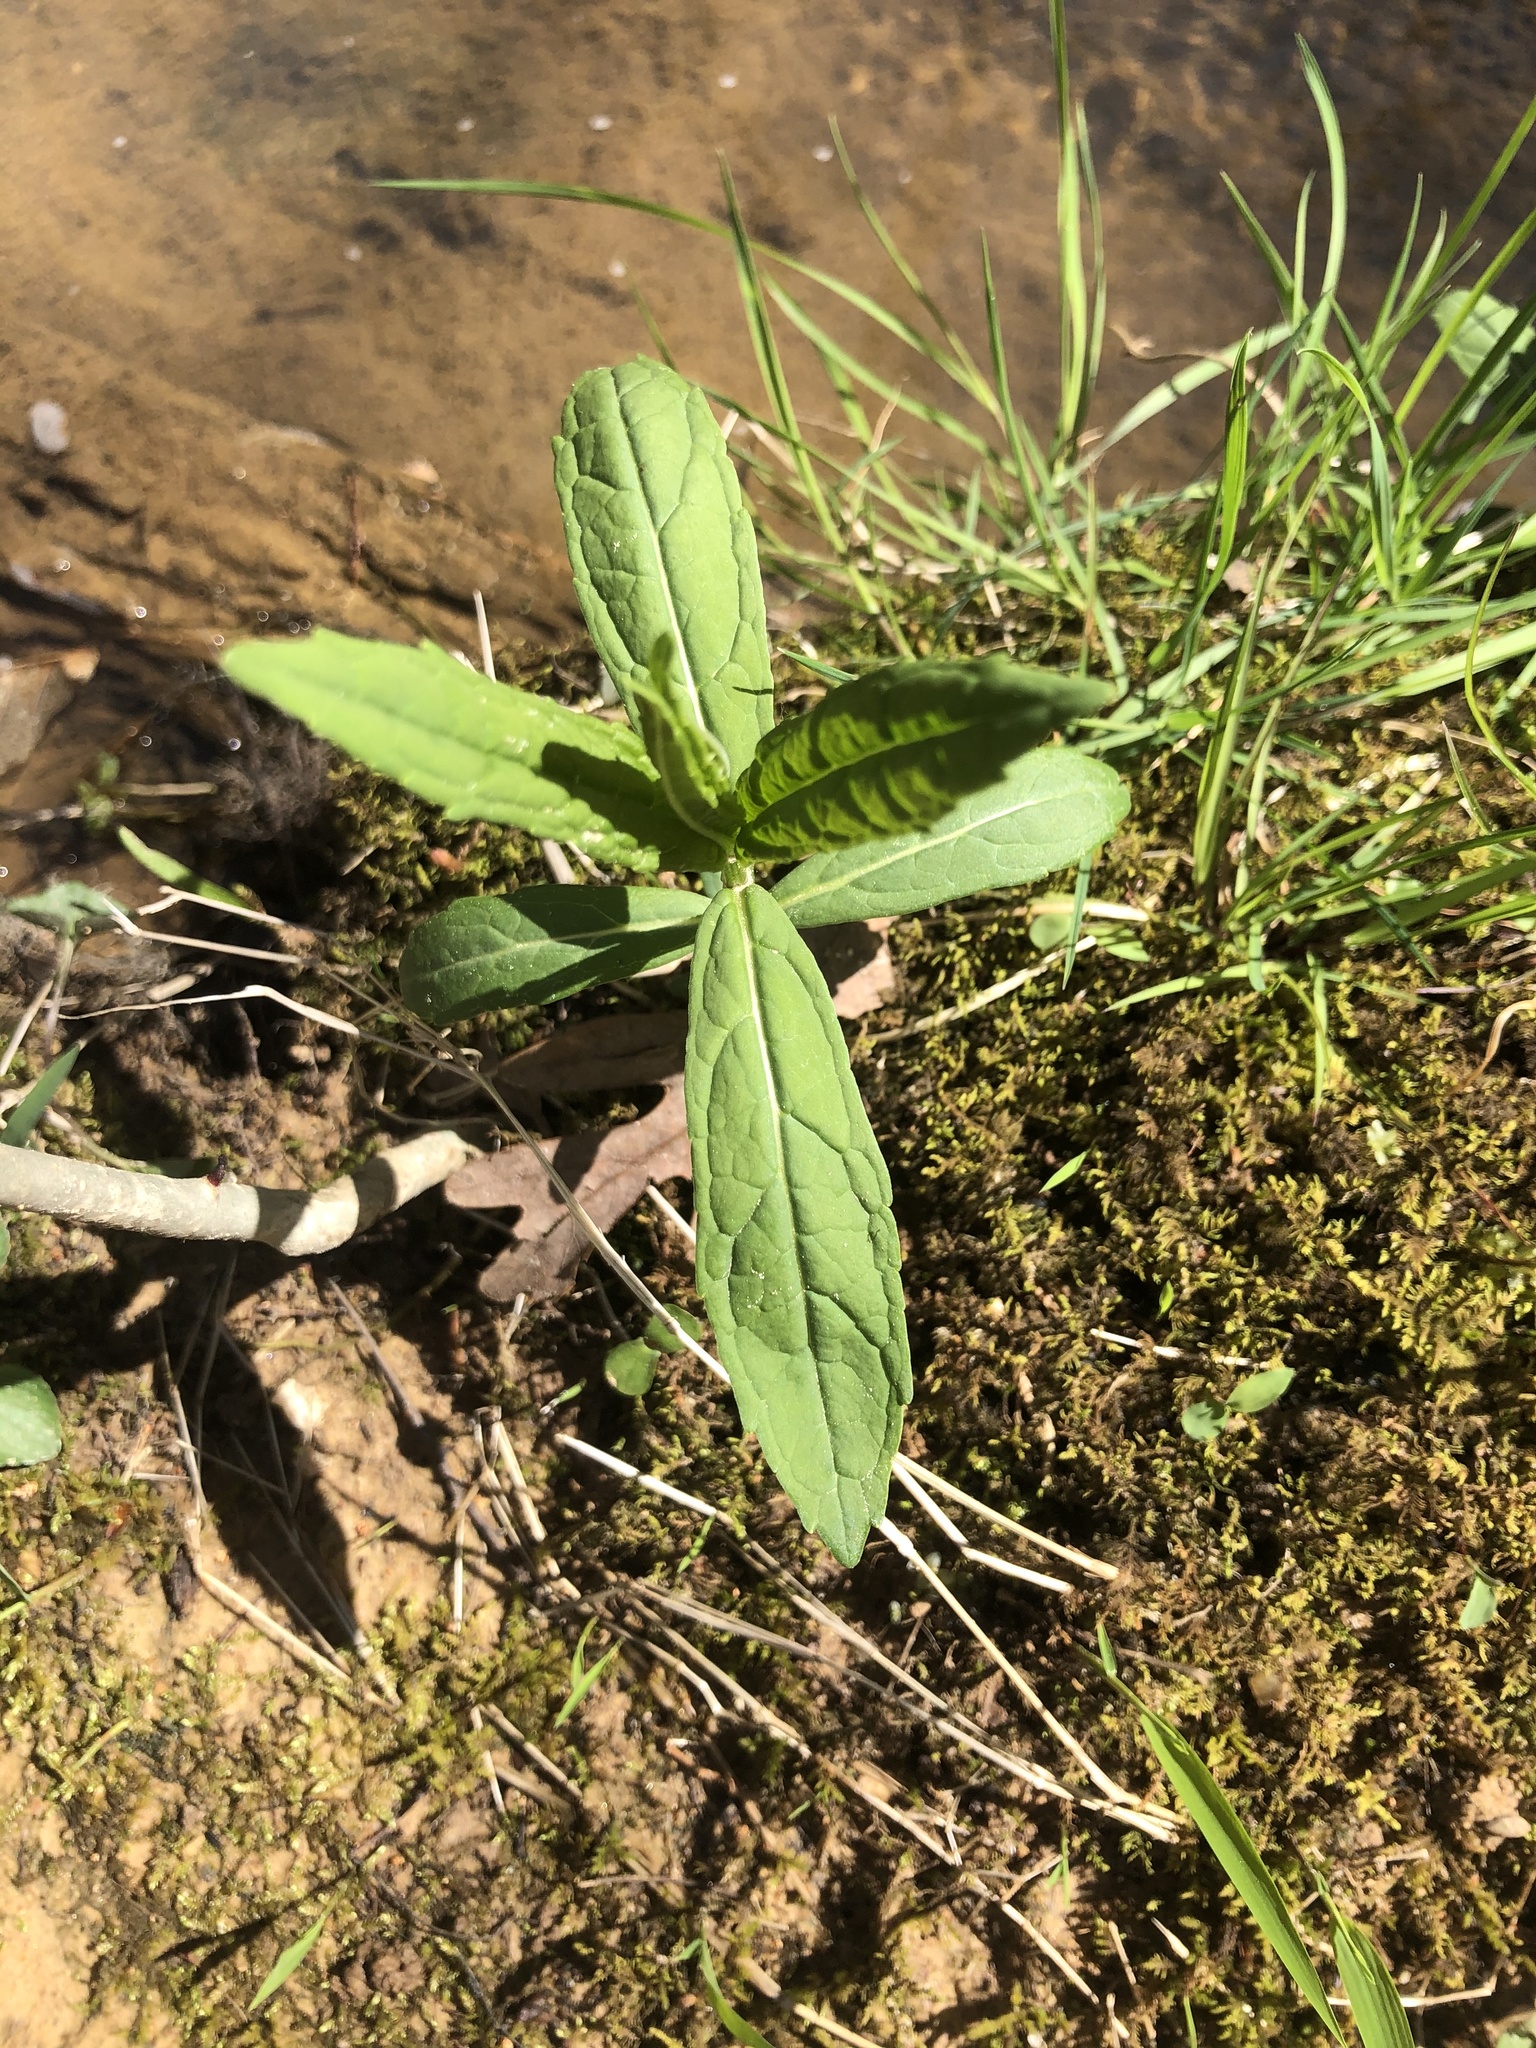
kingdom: Plantae
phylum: Tracheophyta
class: Magnoliopsida
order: Lamiales
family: Plantaginaceae
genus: Chelone
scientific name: Chelone glabra
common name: Snakehead
